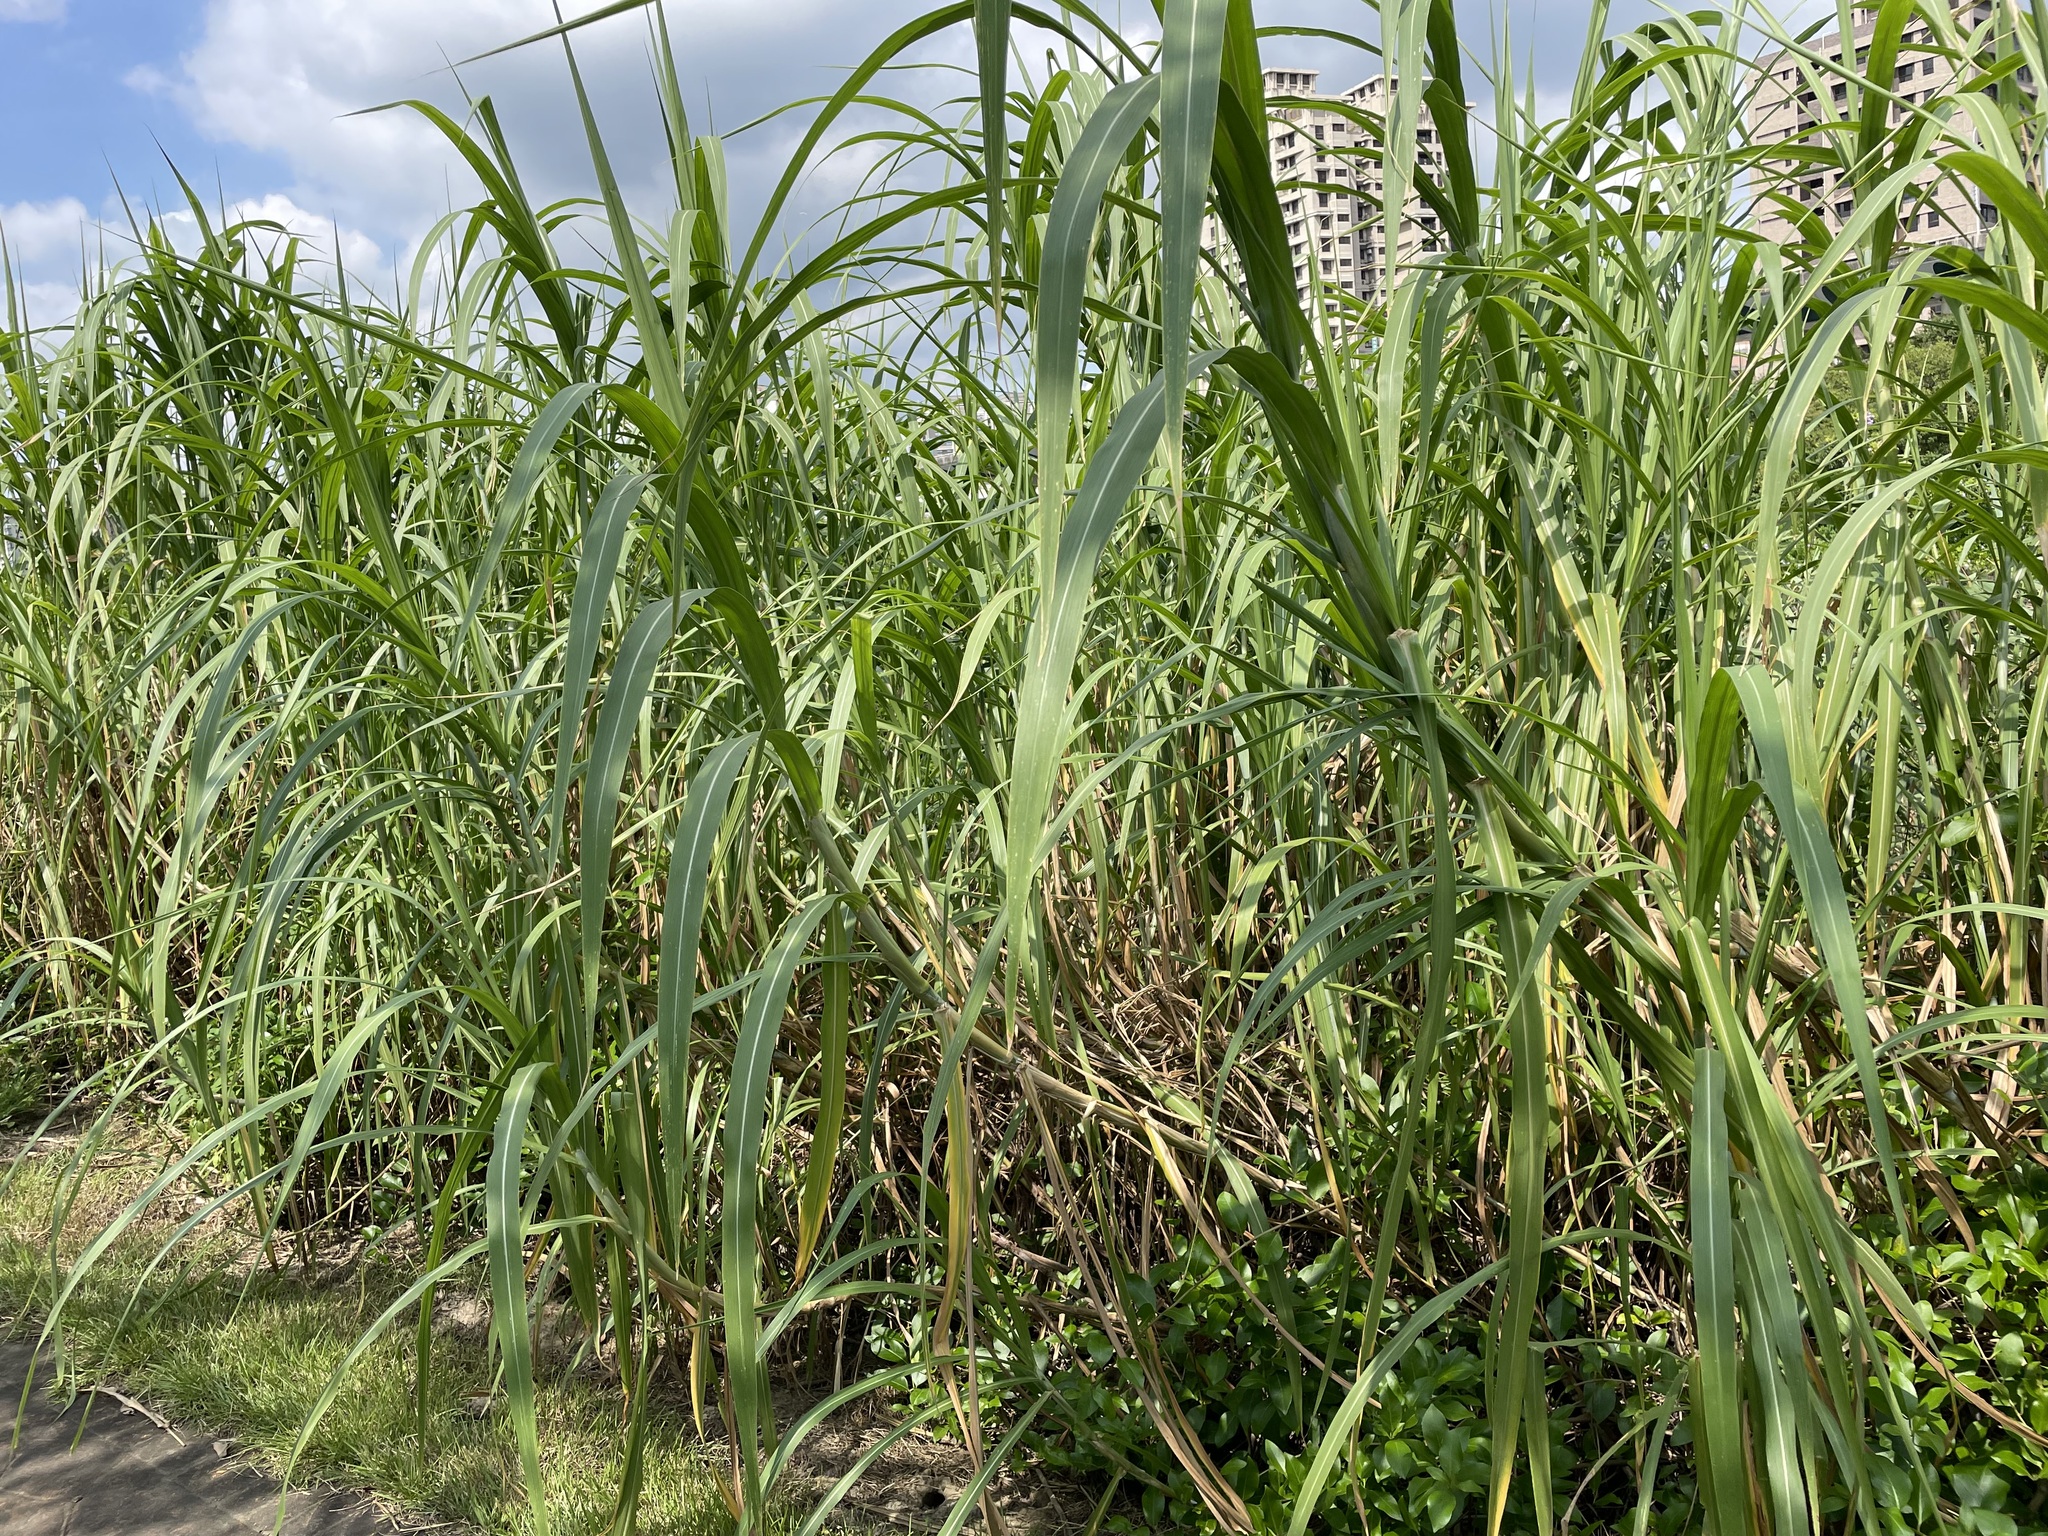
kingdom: Plantae
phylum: Tracheophyta
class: Liliopsida
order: Poales
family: Poaceae
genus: Cenchrus
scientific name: Cenchrus purpureus
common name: Elephant grass
